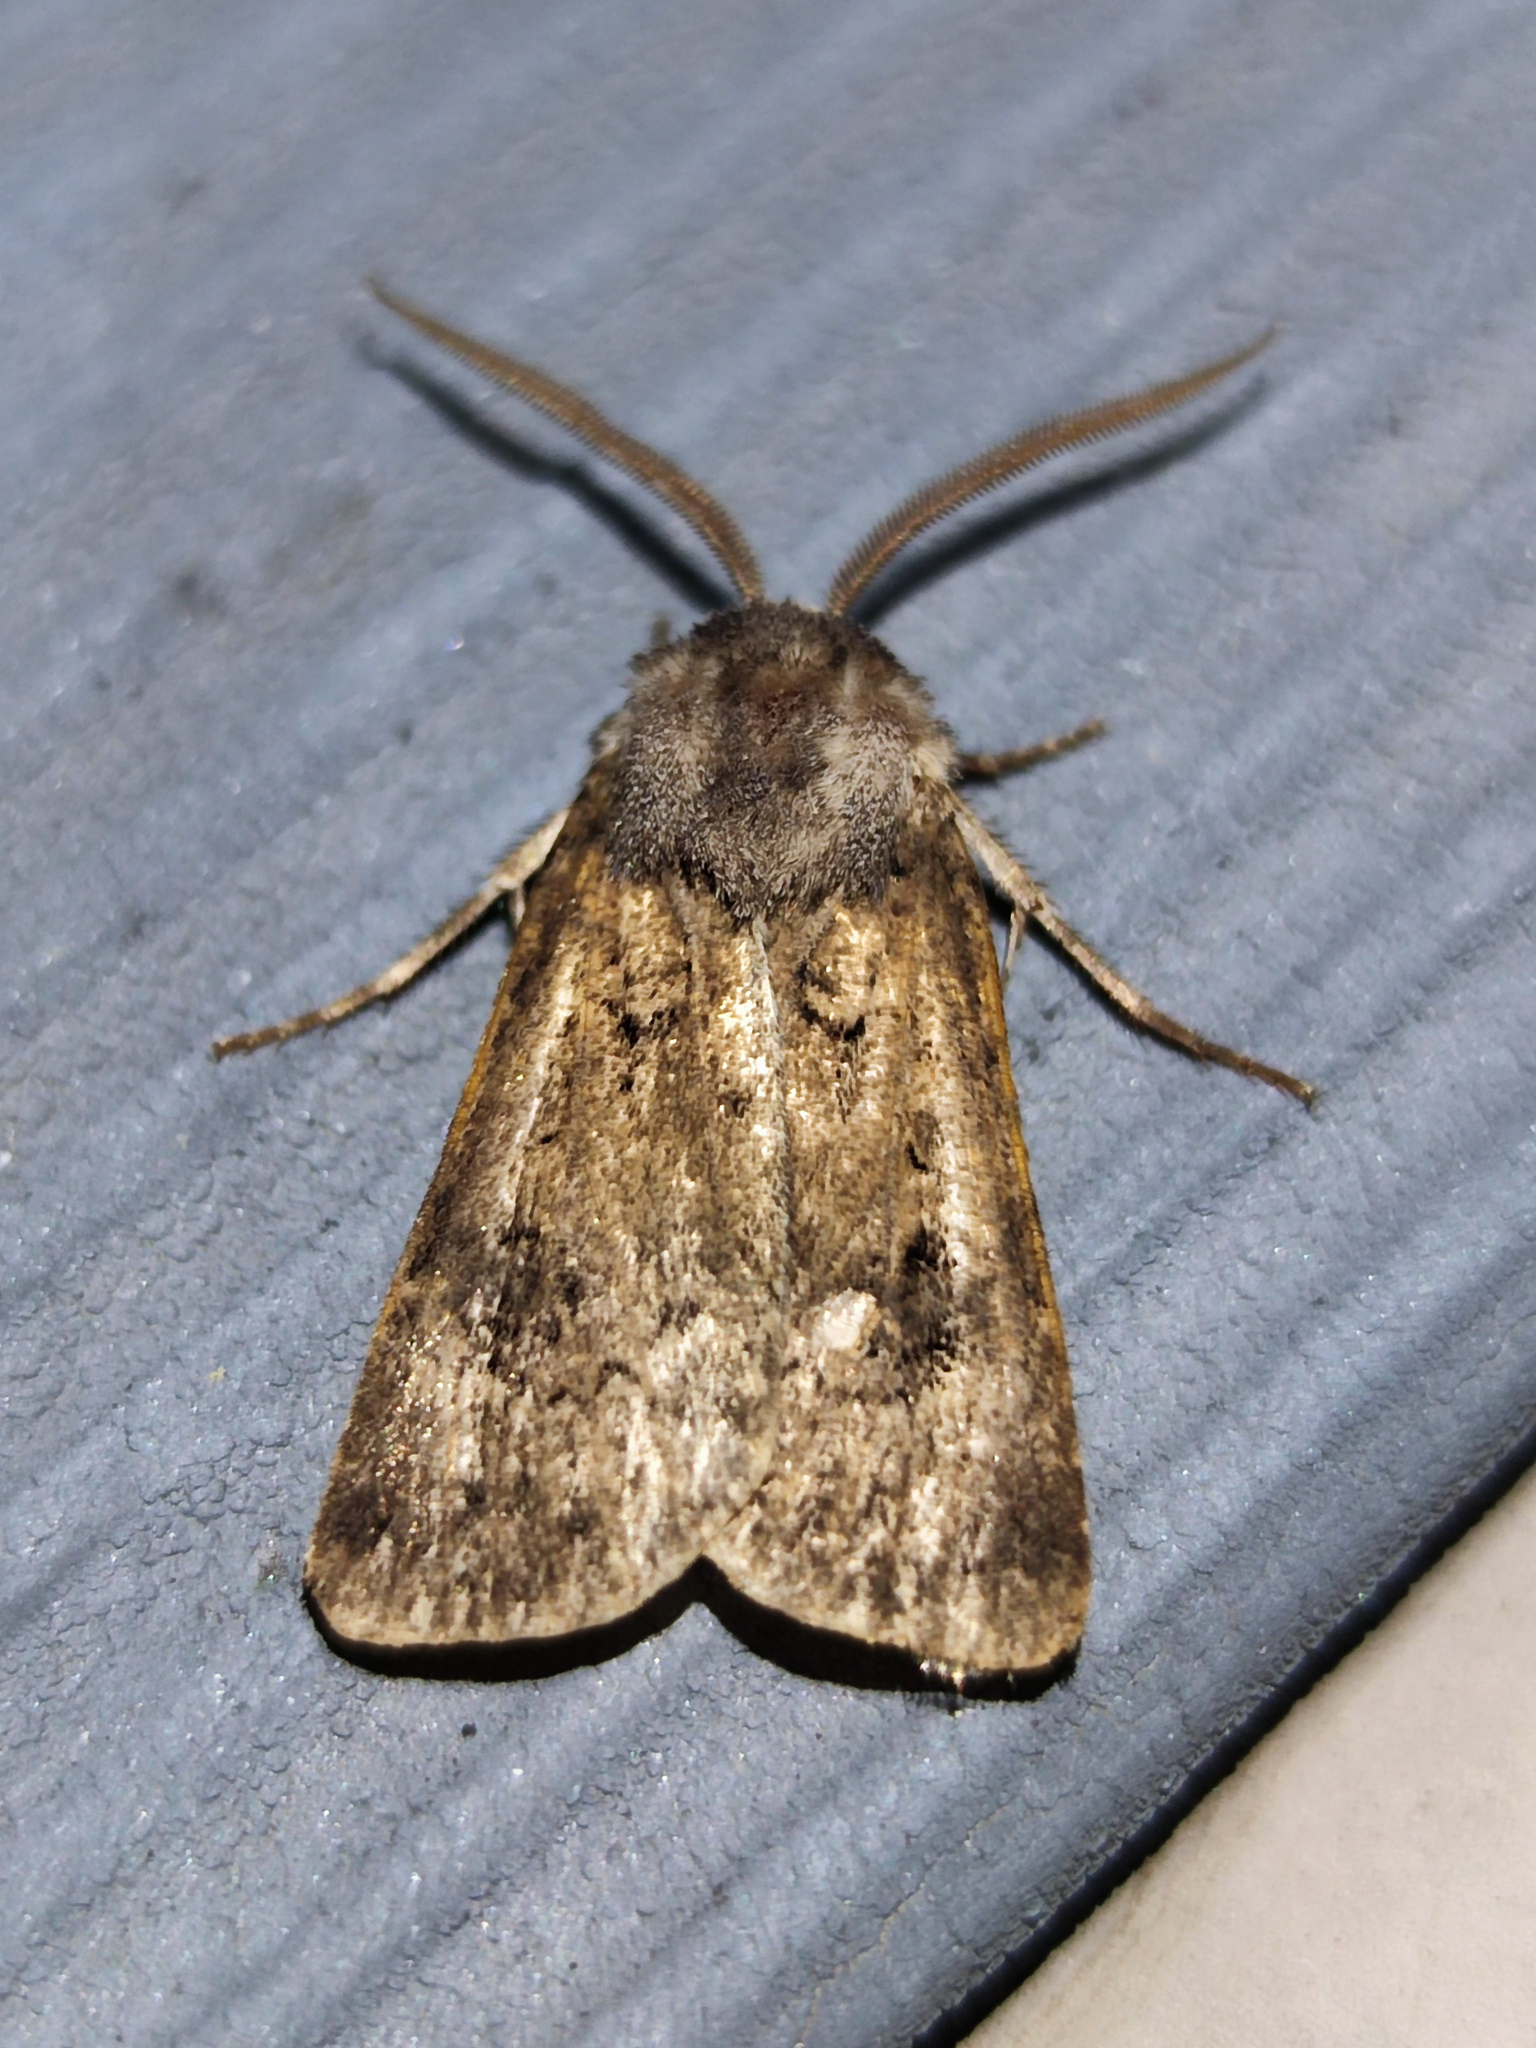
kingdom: Animalia
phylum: Arthropoda
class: Insecta
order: Lepidoptera
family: Noctuidae
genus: Agrotis
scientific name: Agrotis bigramma
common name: Great dart
